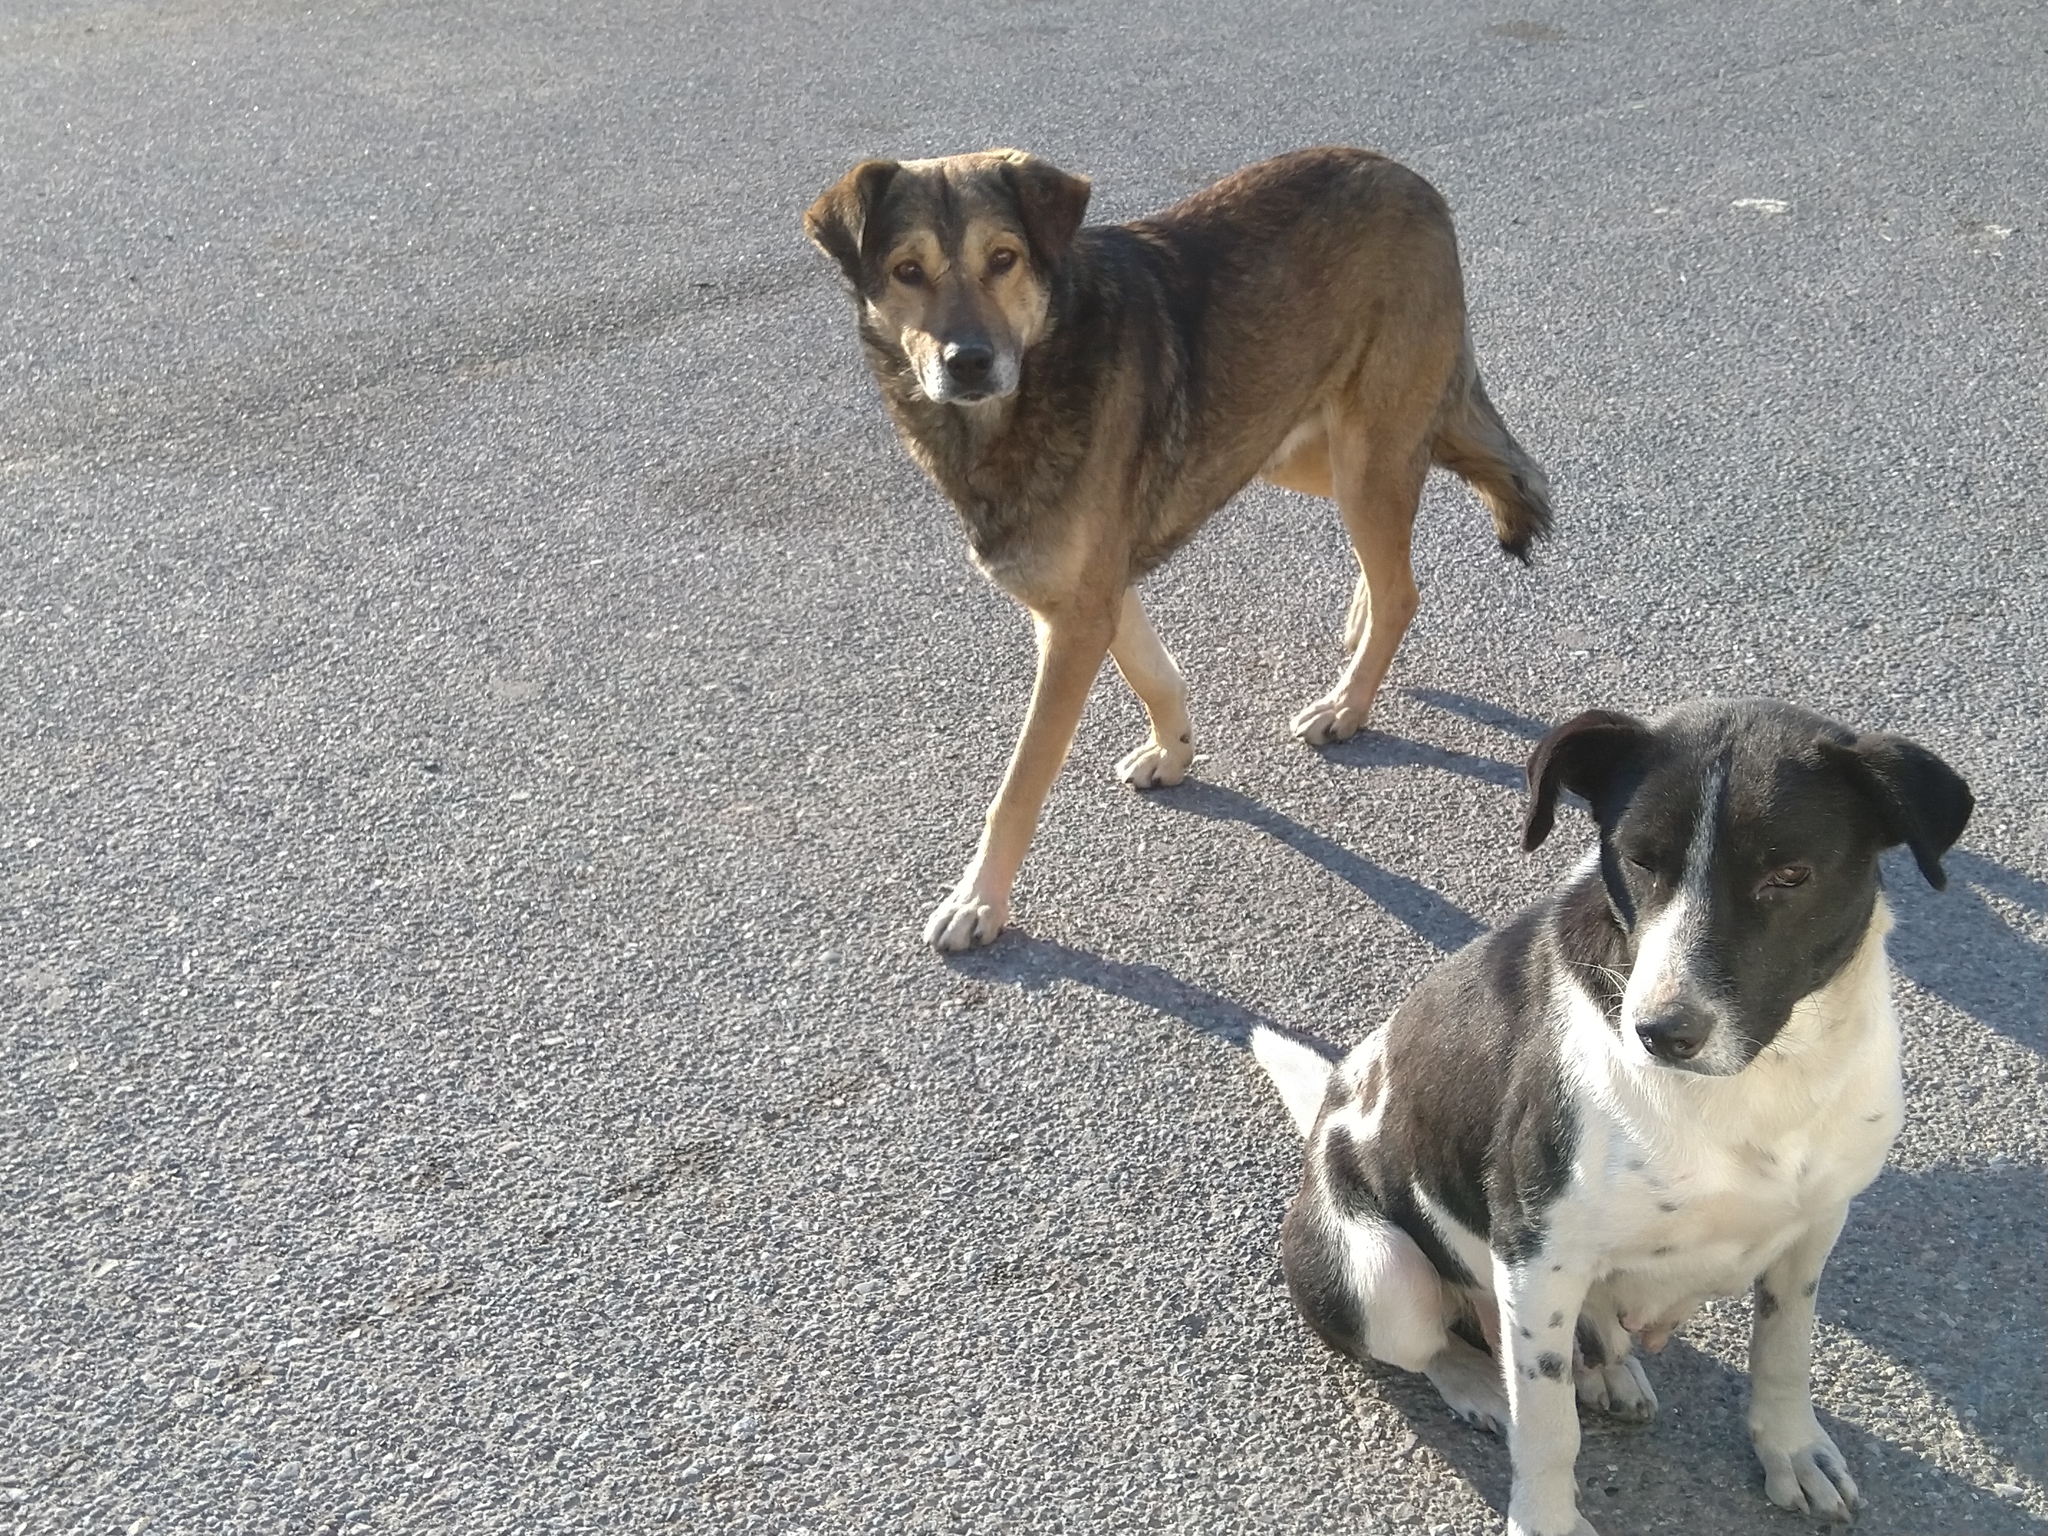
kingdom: Animalia
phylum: Chordata
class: Mammalia
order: Carnivora
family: Canidae
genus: Canis
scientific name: Canis lupus
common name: Gray wolf
